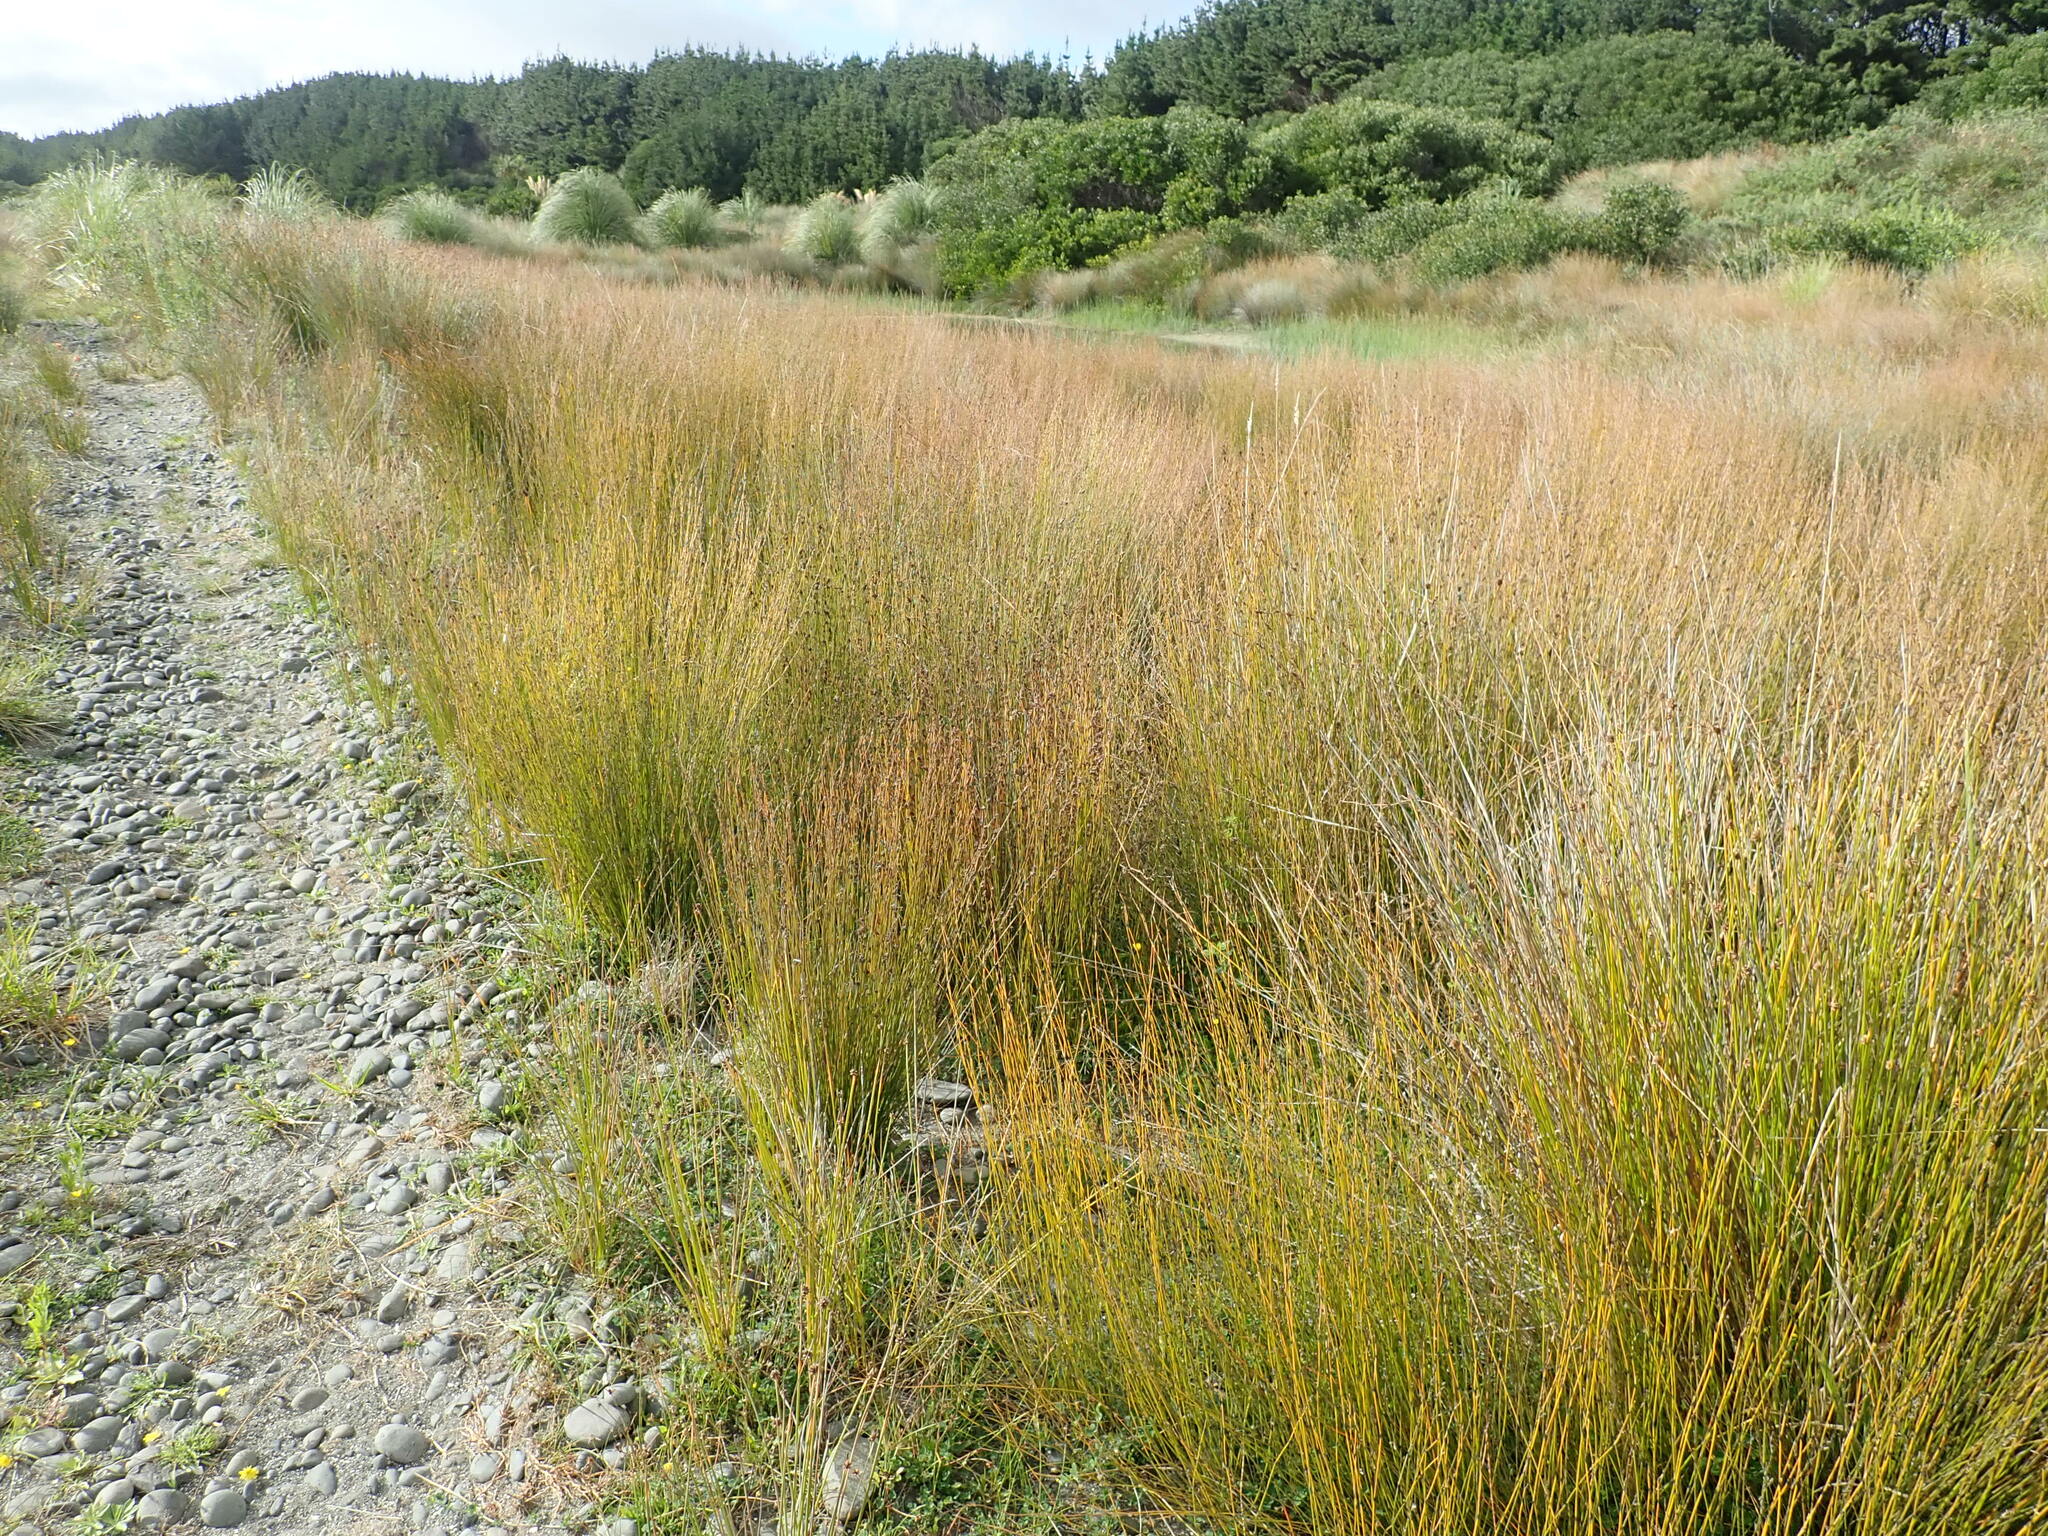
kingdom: Plantae
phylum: Tracheophyta
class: Liliopsida
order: Poales
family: Restionaceae
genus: Apodasmia
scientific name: Apodasmia similis
